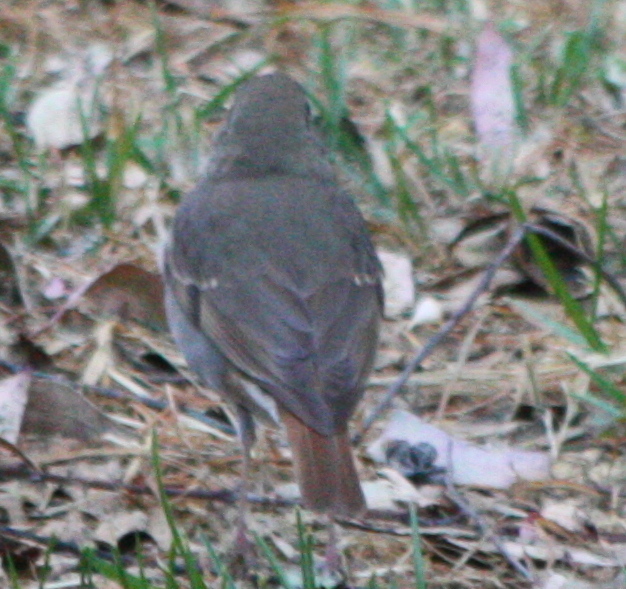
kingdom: Animalia
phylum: Chordata
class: Aves
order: Passeriformes
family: Turdidae
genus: Catharus
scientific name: Catharus guttatus
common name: Hermit thrush
